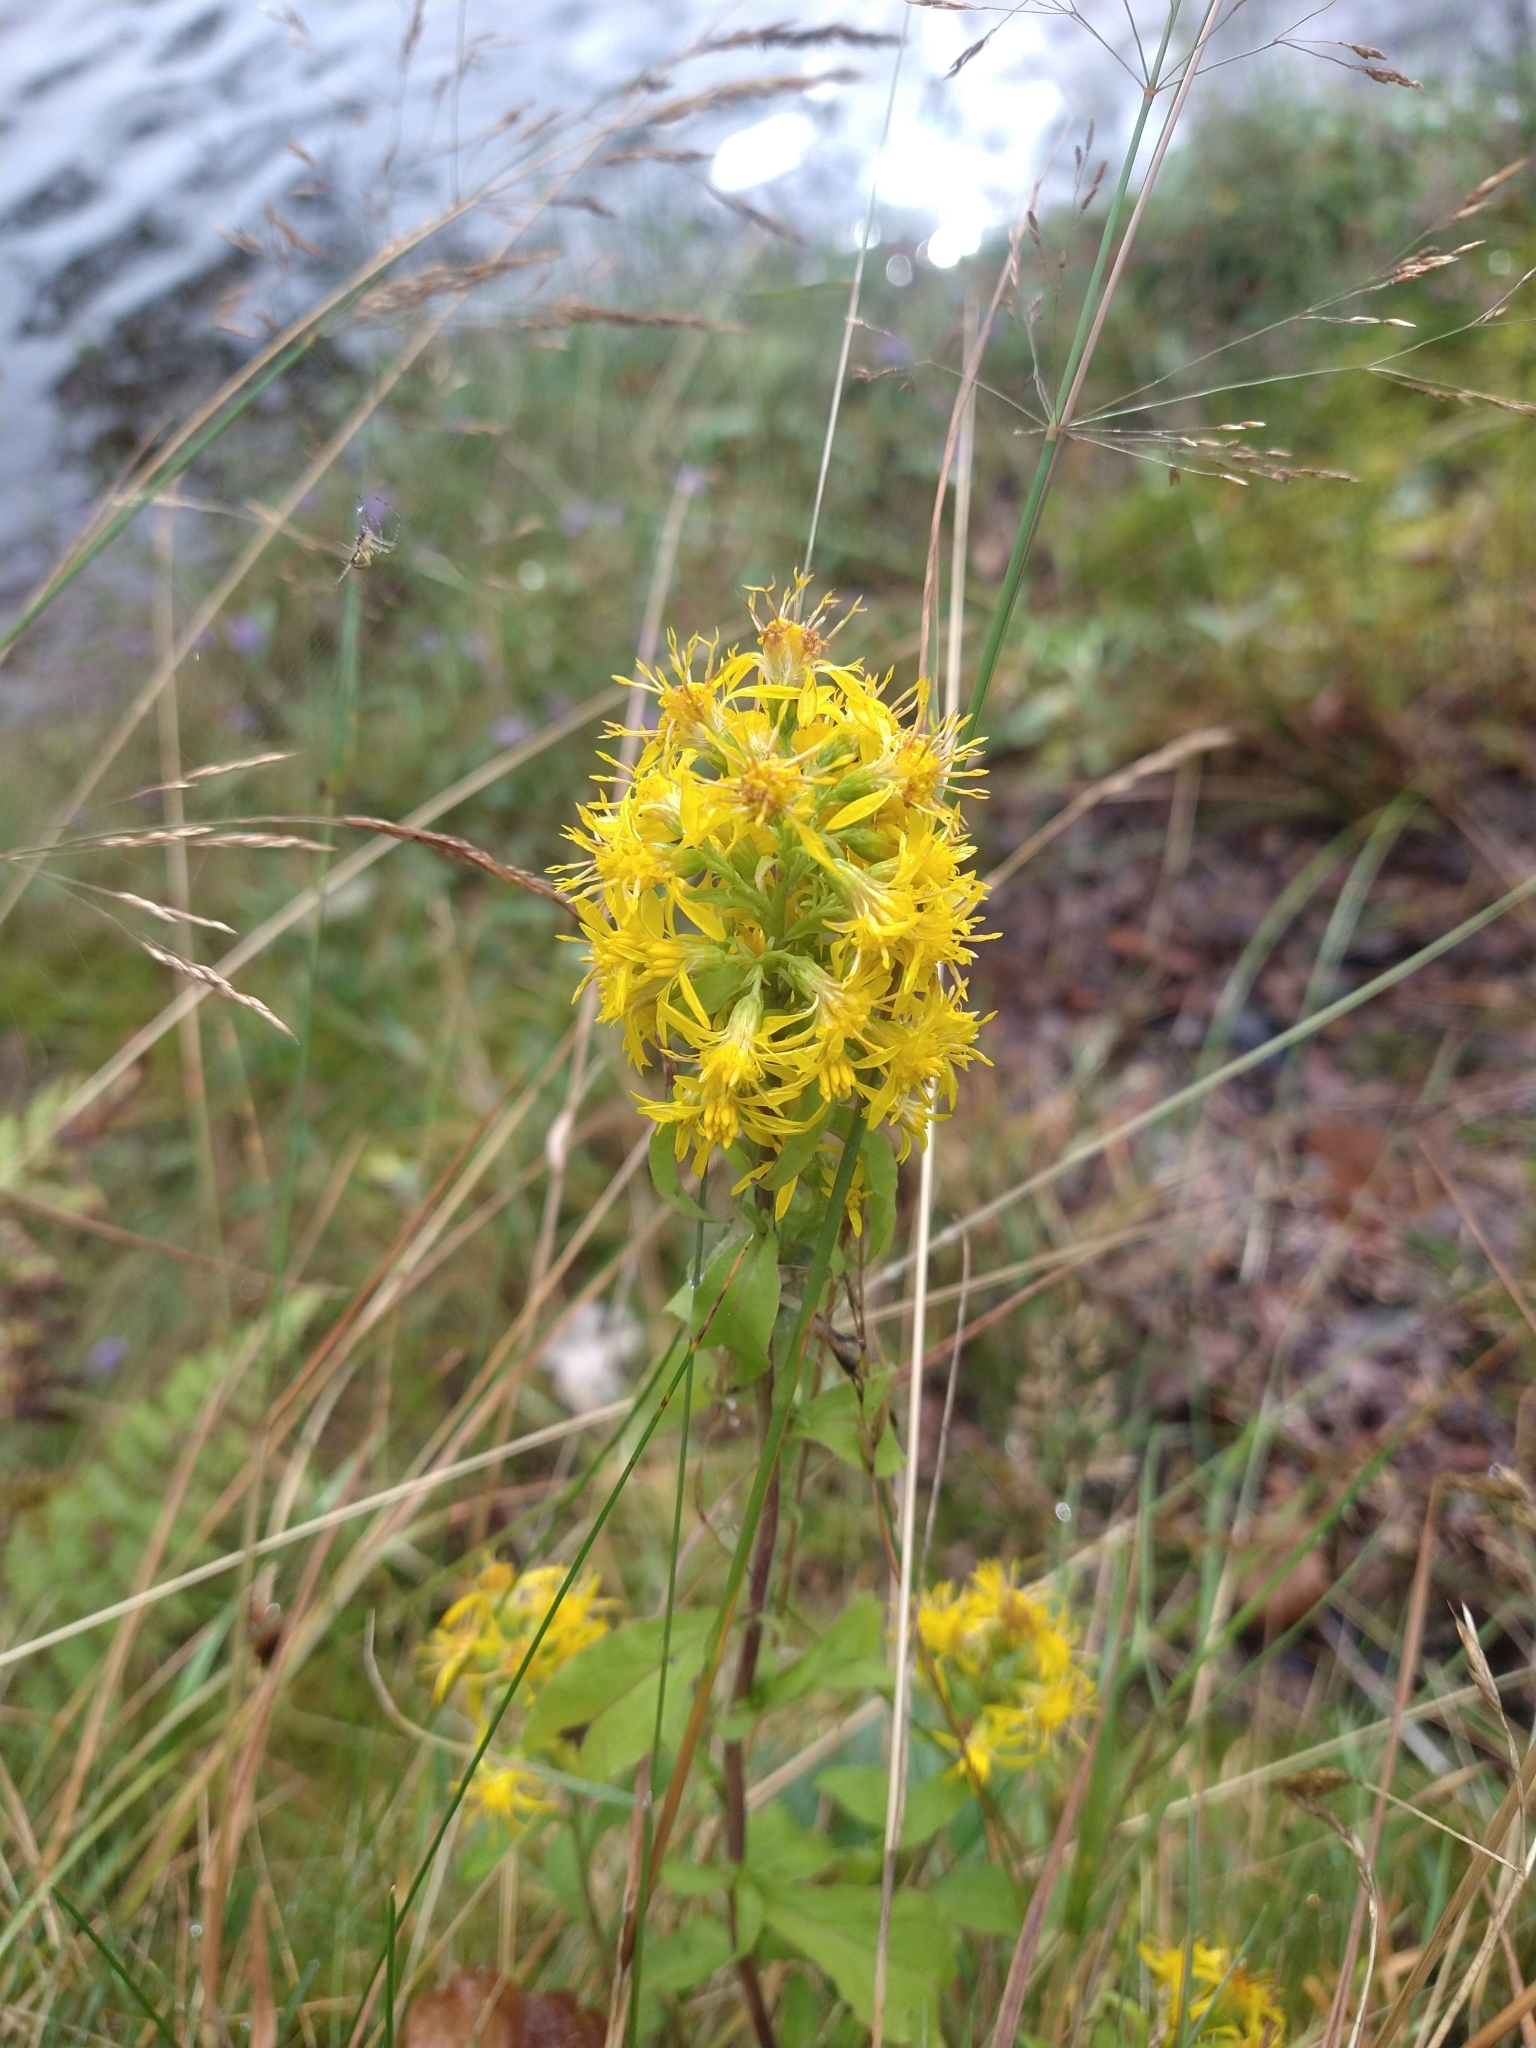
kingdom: Plantae
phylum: Tracheophyta
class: Magnoliopsida
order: Asterales
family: Asteraceae
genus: Solidago
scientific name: Solidago virgaurea
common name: Goldenrod
